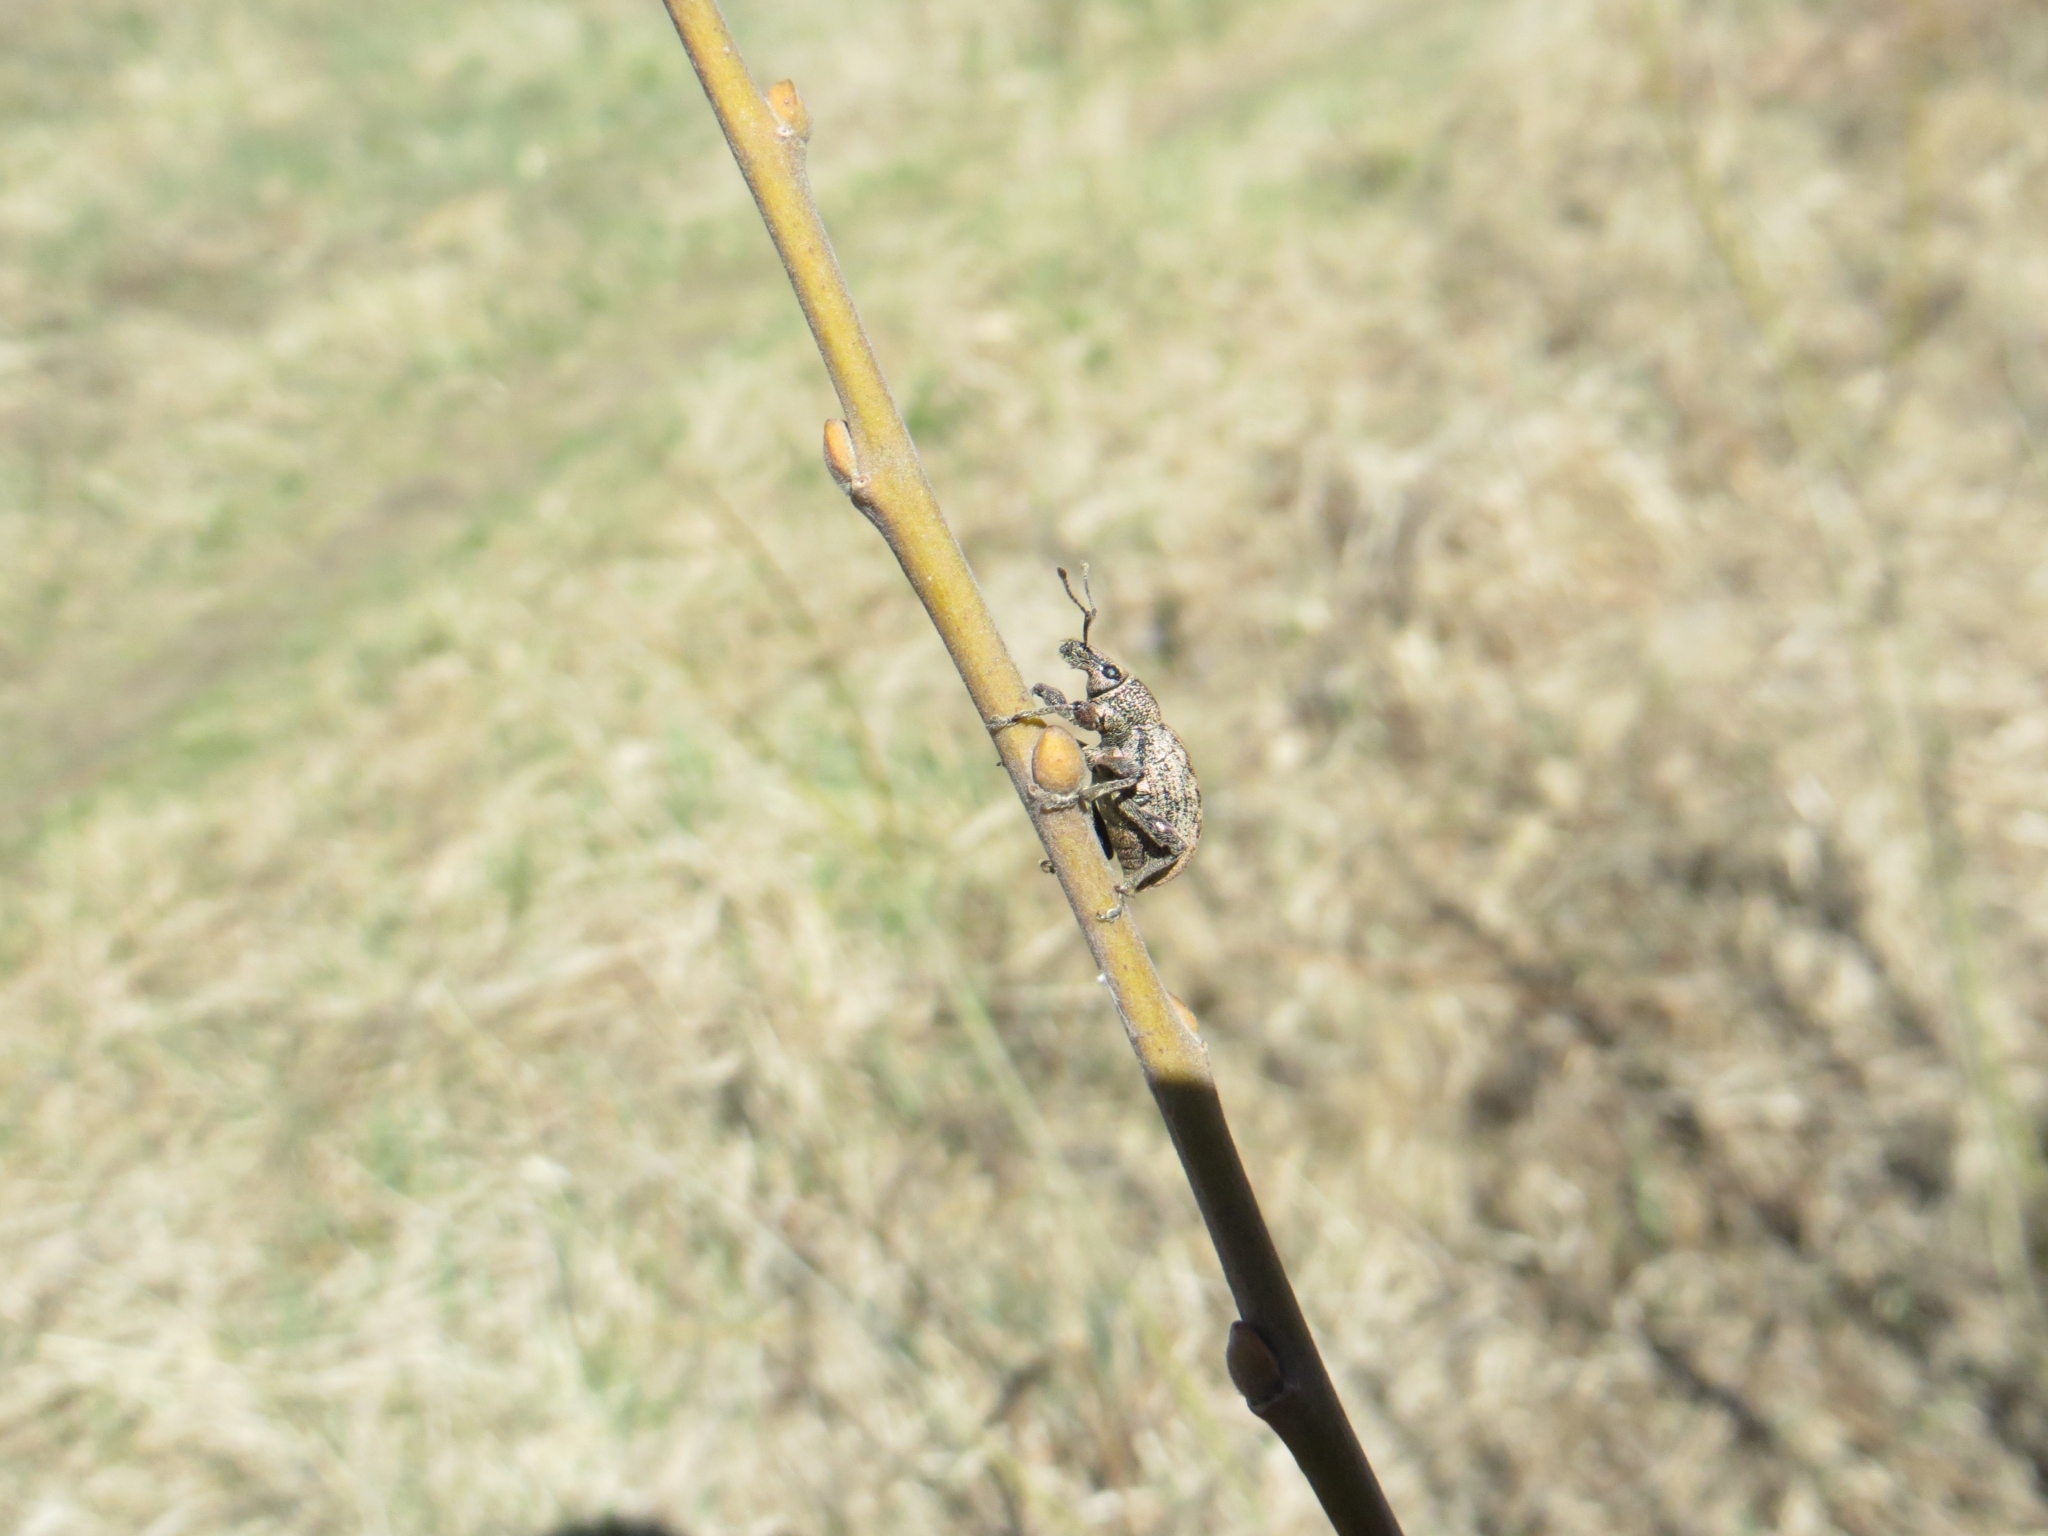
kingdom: Animalia
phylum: Arthropoda
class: Insecta
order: Coleoptera
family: Curculionidae
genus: Otiorhynchus
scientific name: Otiorhynchus ligustici
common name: Weevil
